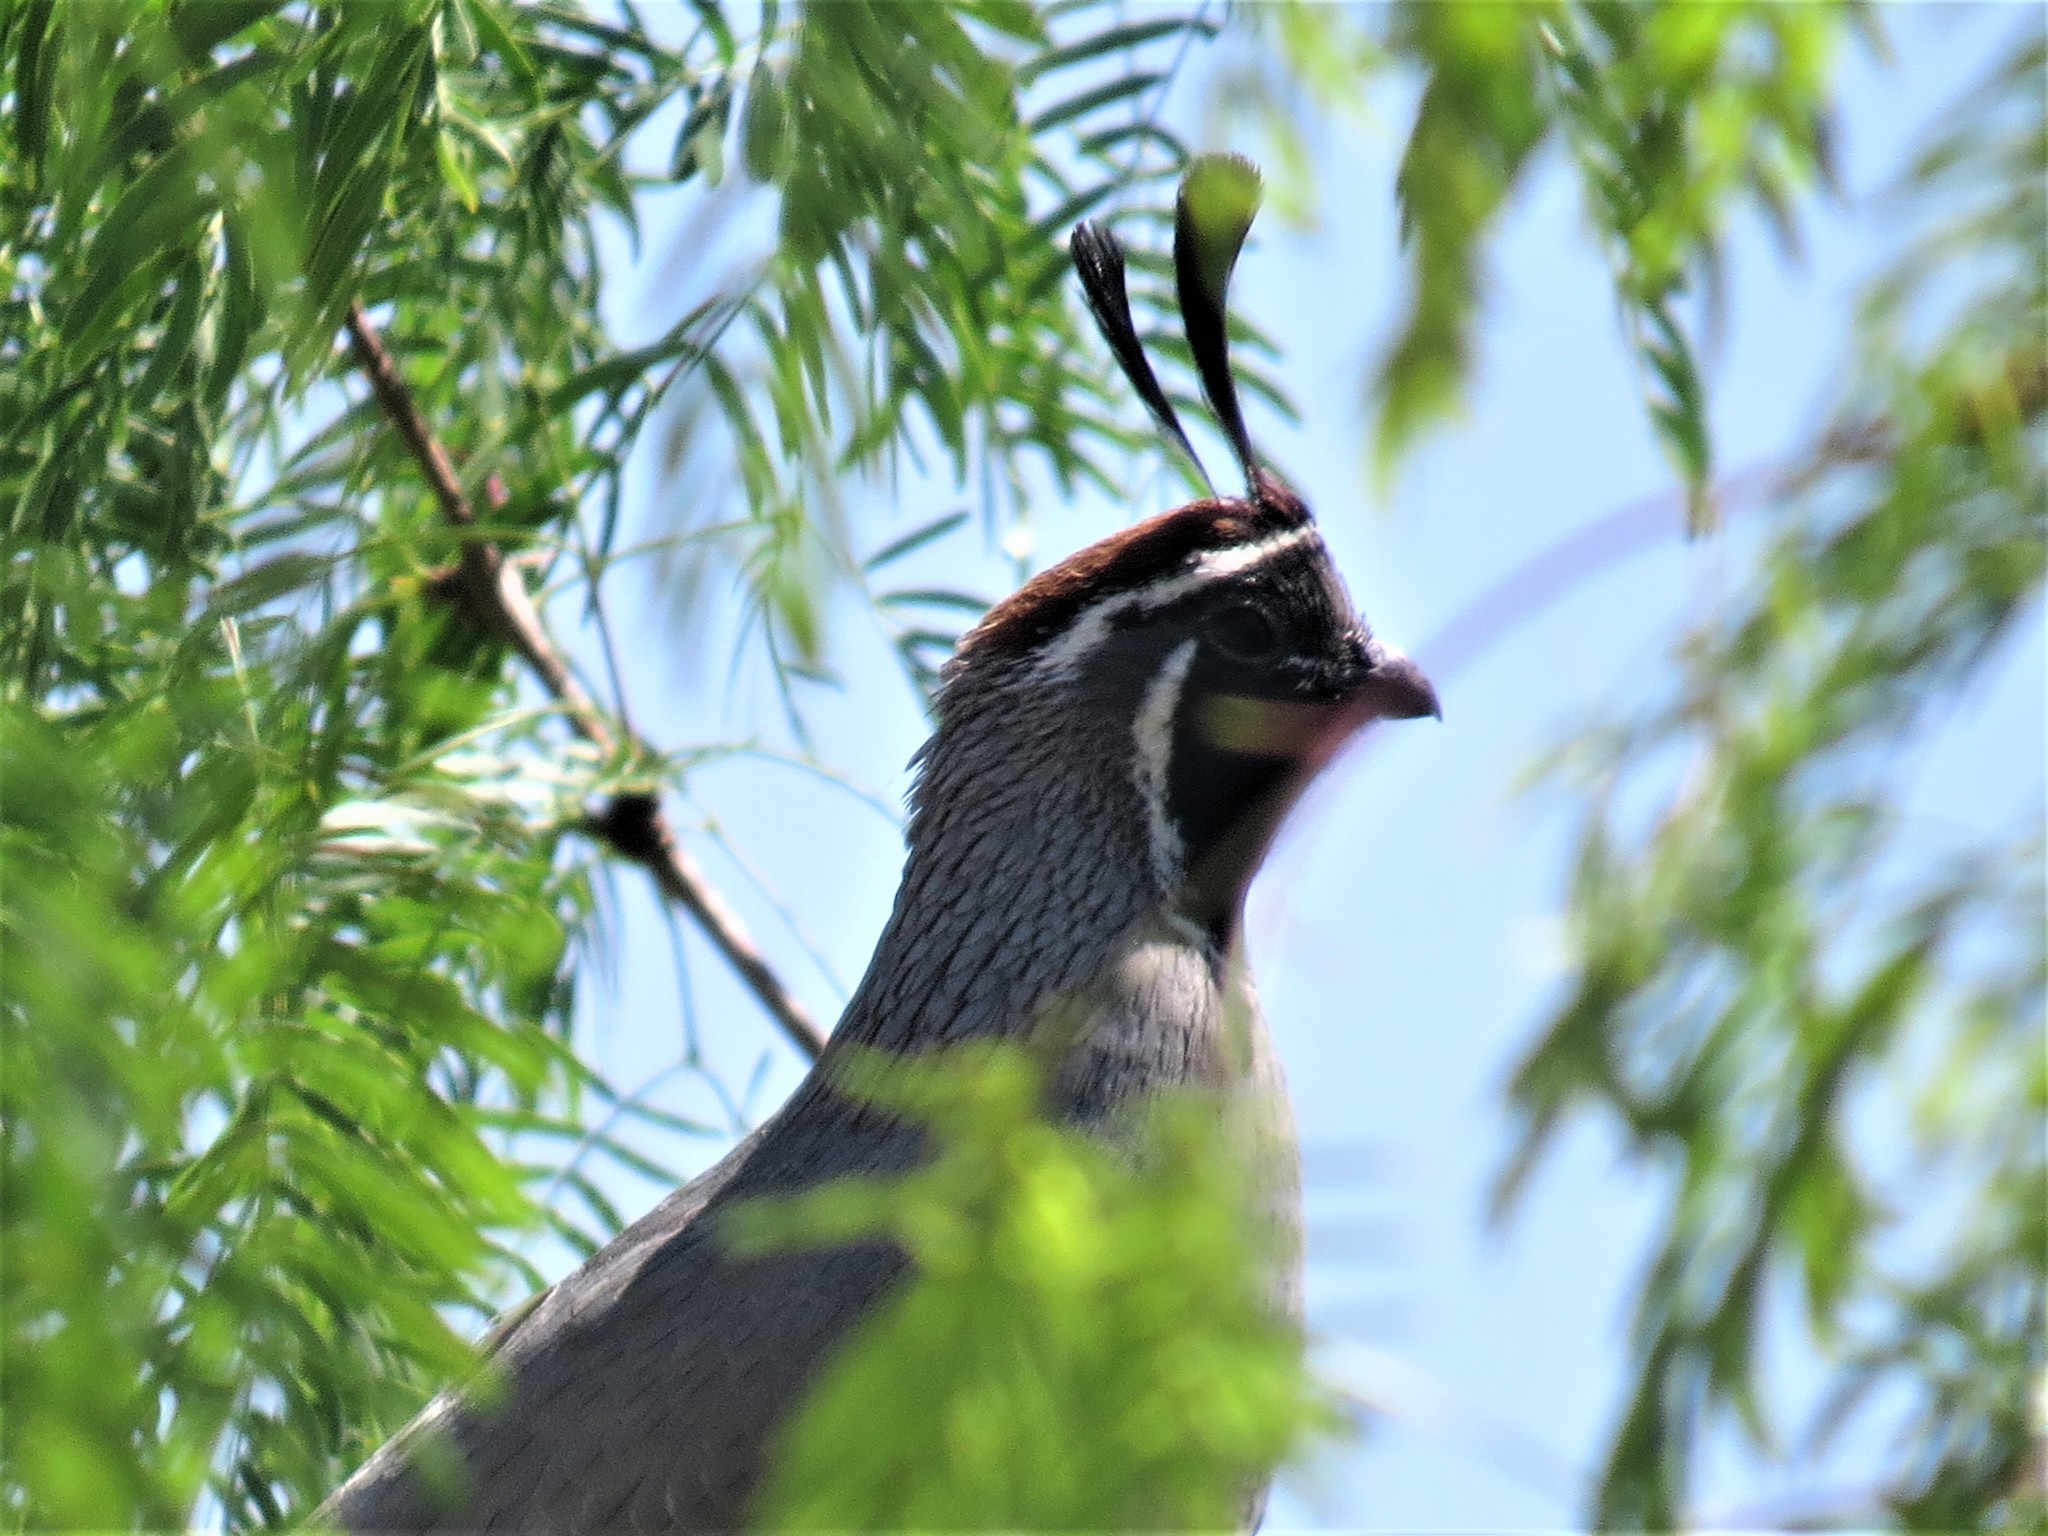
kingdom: Animalia
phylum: Chordata
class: Aves
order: Galliformes
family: Odontophoridae
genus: Callipepla
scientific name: Callipepla gambelii
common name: Gambel's quail
